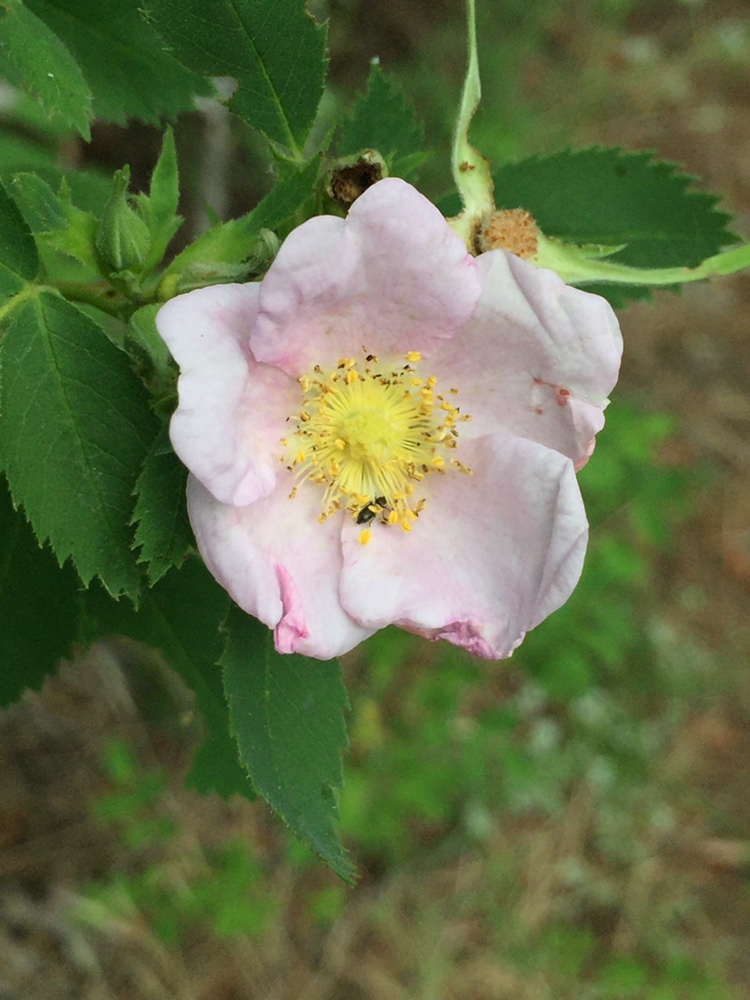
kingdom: Plantae
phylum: Tracheophyta
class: Magnoliopsida
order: Rosales
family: Rosaceae
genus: Rosa
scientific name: Rosa californica
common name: California rose
